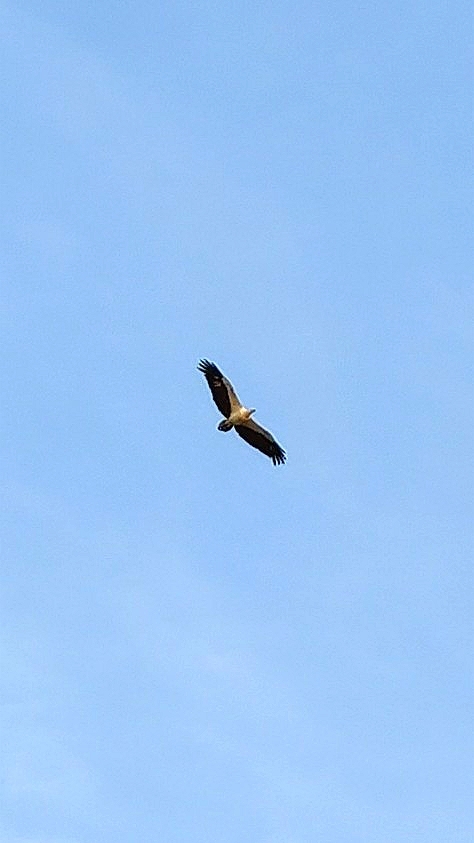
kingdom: Animalia
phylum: Chordata
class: Aves
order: Accipitriformes
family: Accipitridae
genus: Haliaeetus
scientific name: Haliaeetus leucogaster
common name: White-bellied sea eagle
